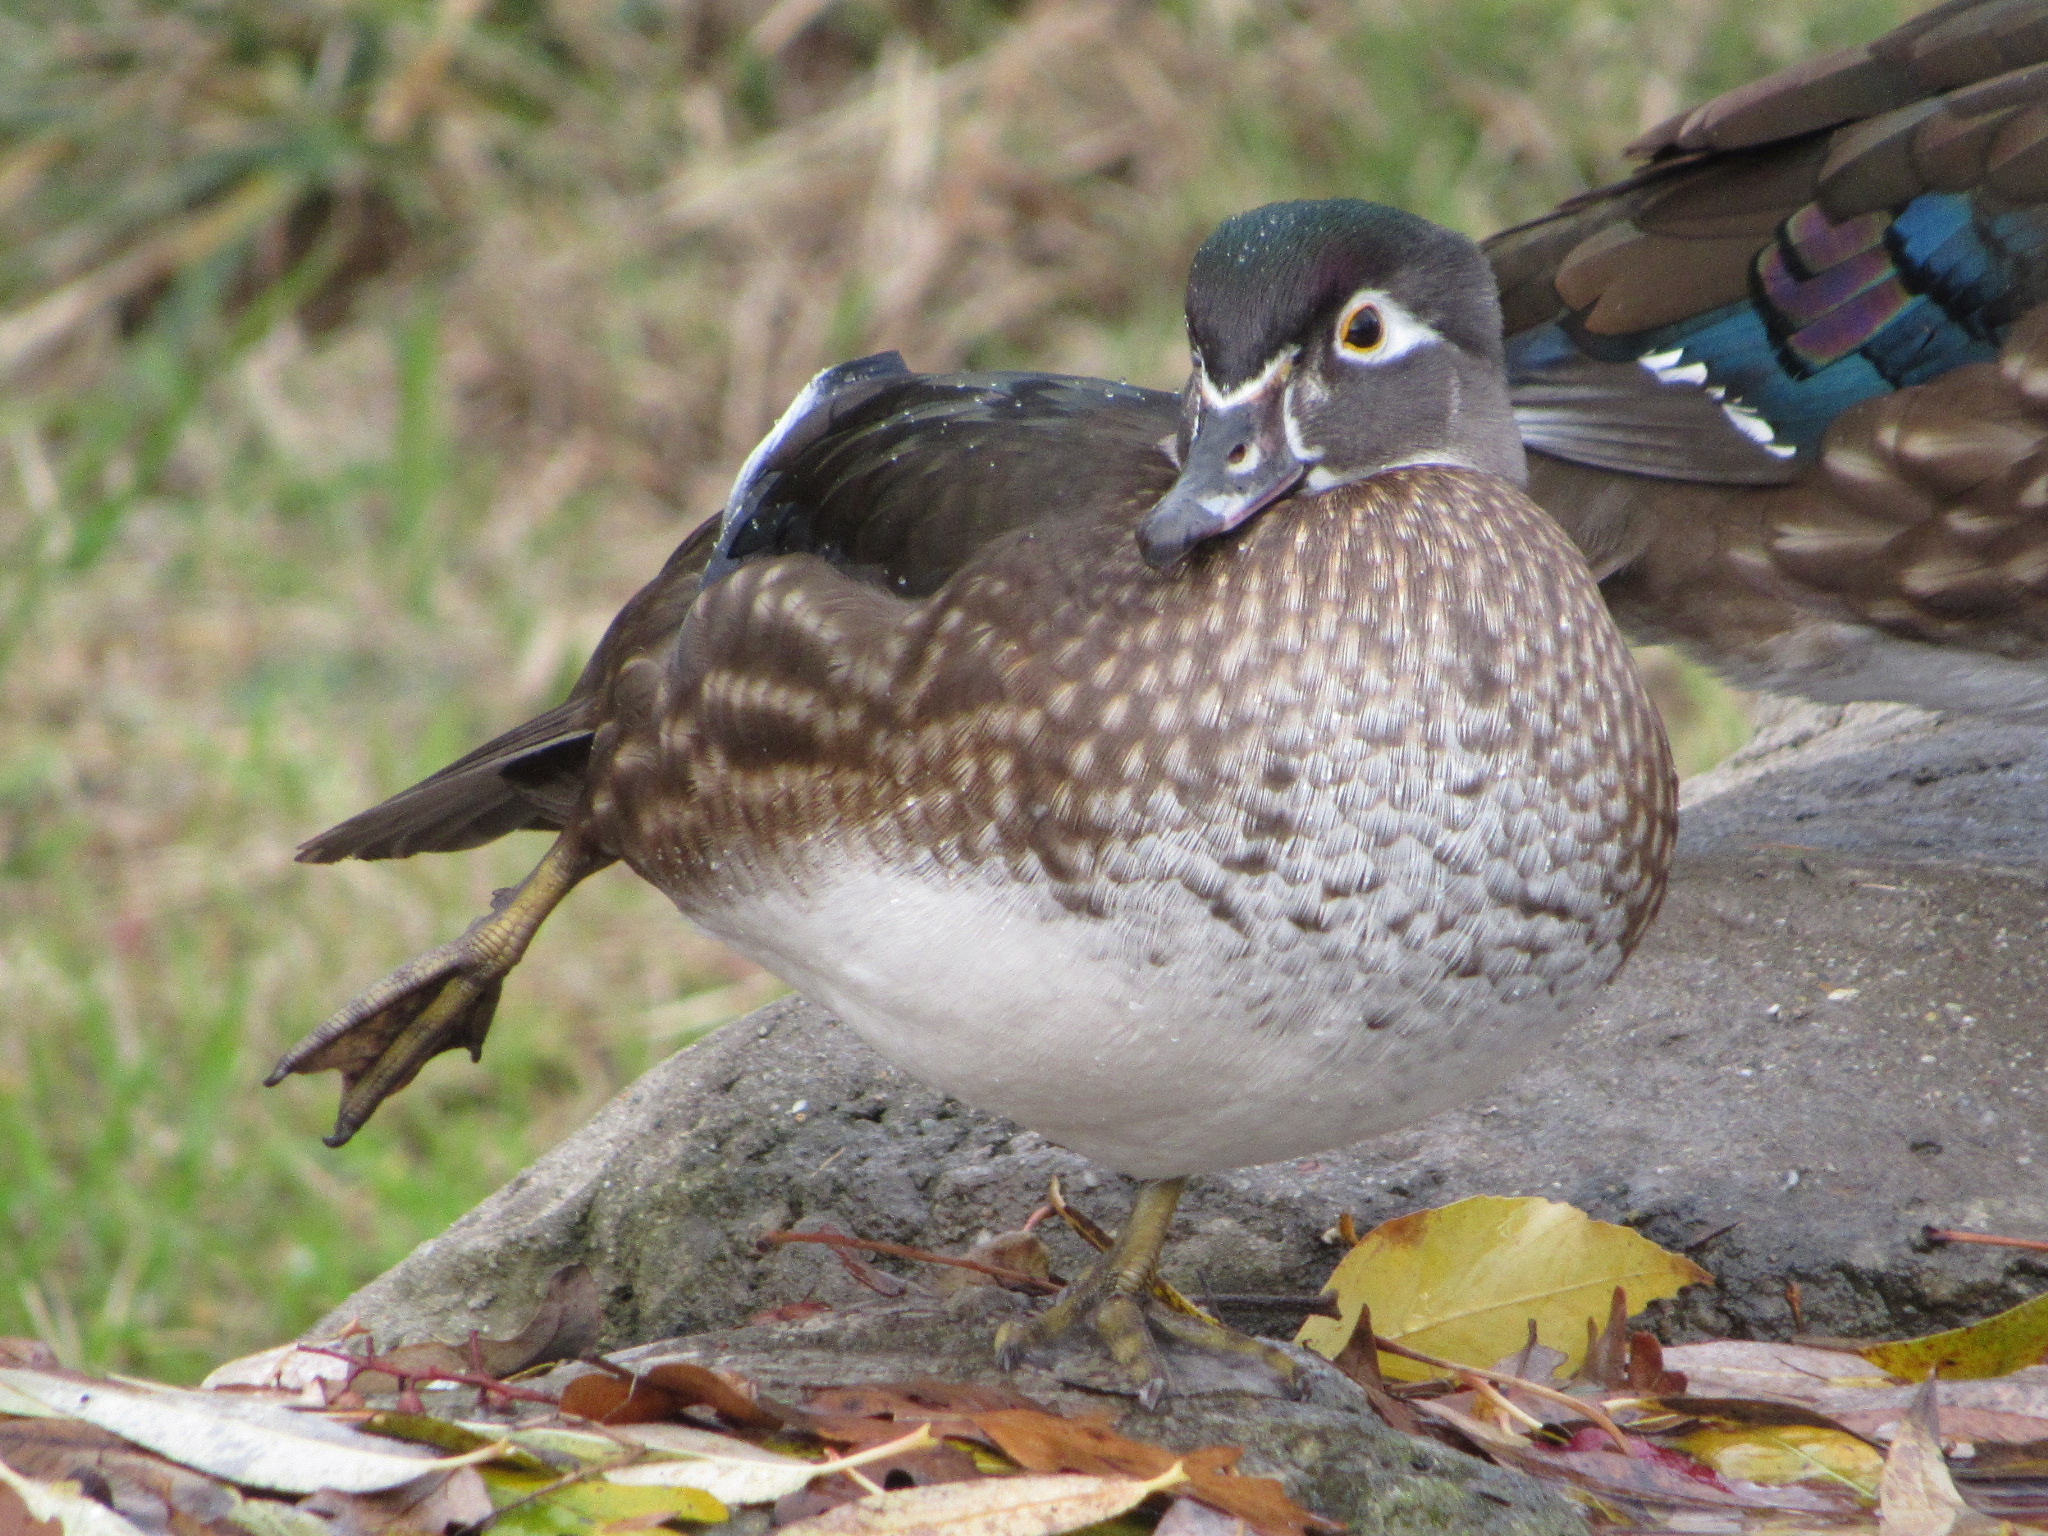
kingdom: Animalia
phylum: Chordata
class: Aves
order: Anseriformes
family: Anatidae
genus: Aix
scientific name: Aix sponsa
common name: Wood duck
